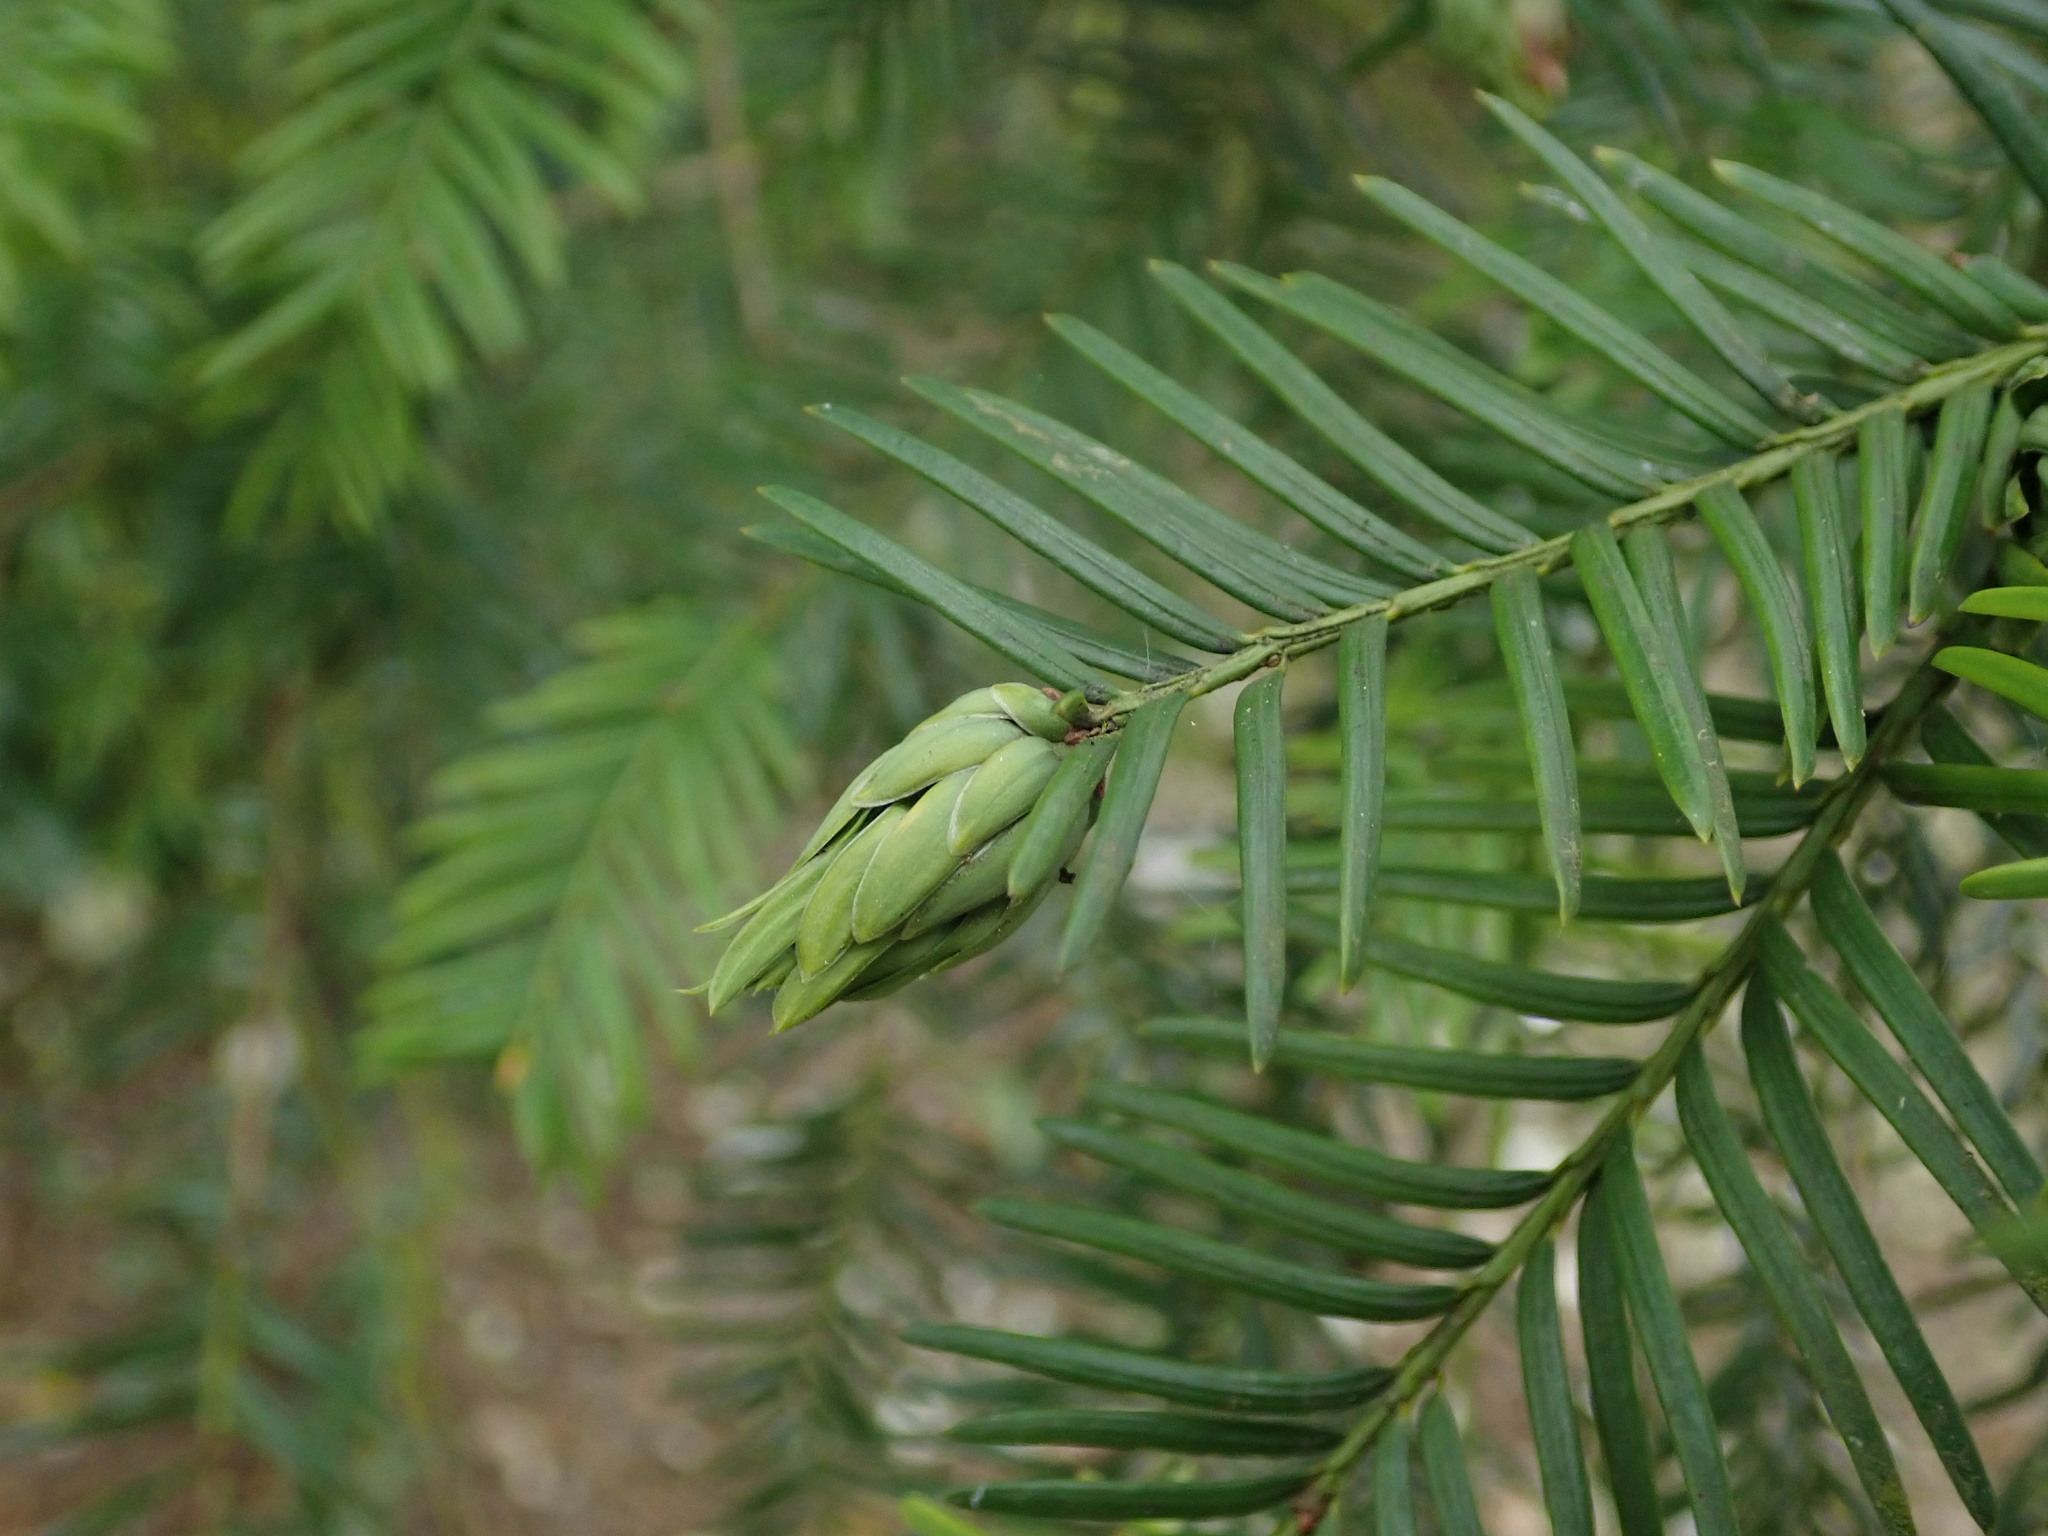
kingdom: Animalia
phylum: Arthropoda
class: Insecta
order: Diptera
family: Cecidomyiidae
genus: Taxomyia
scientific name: Taxomyia taxi
